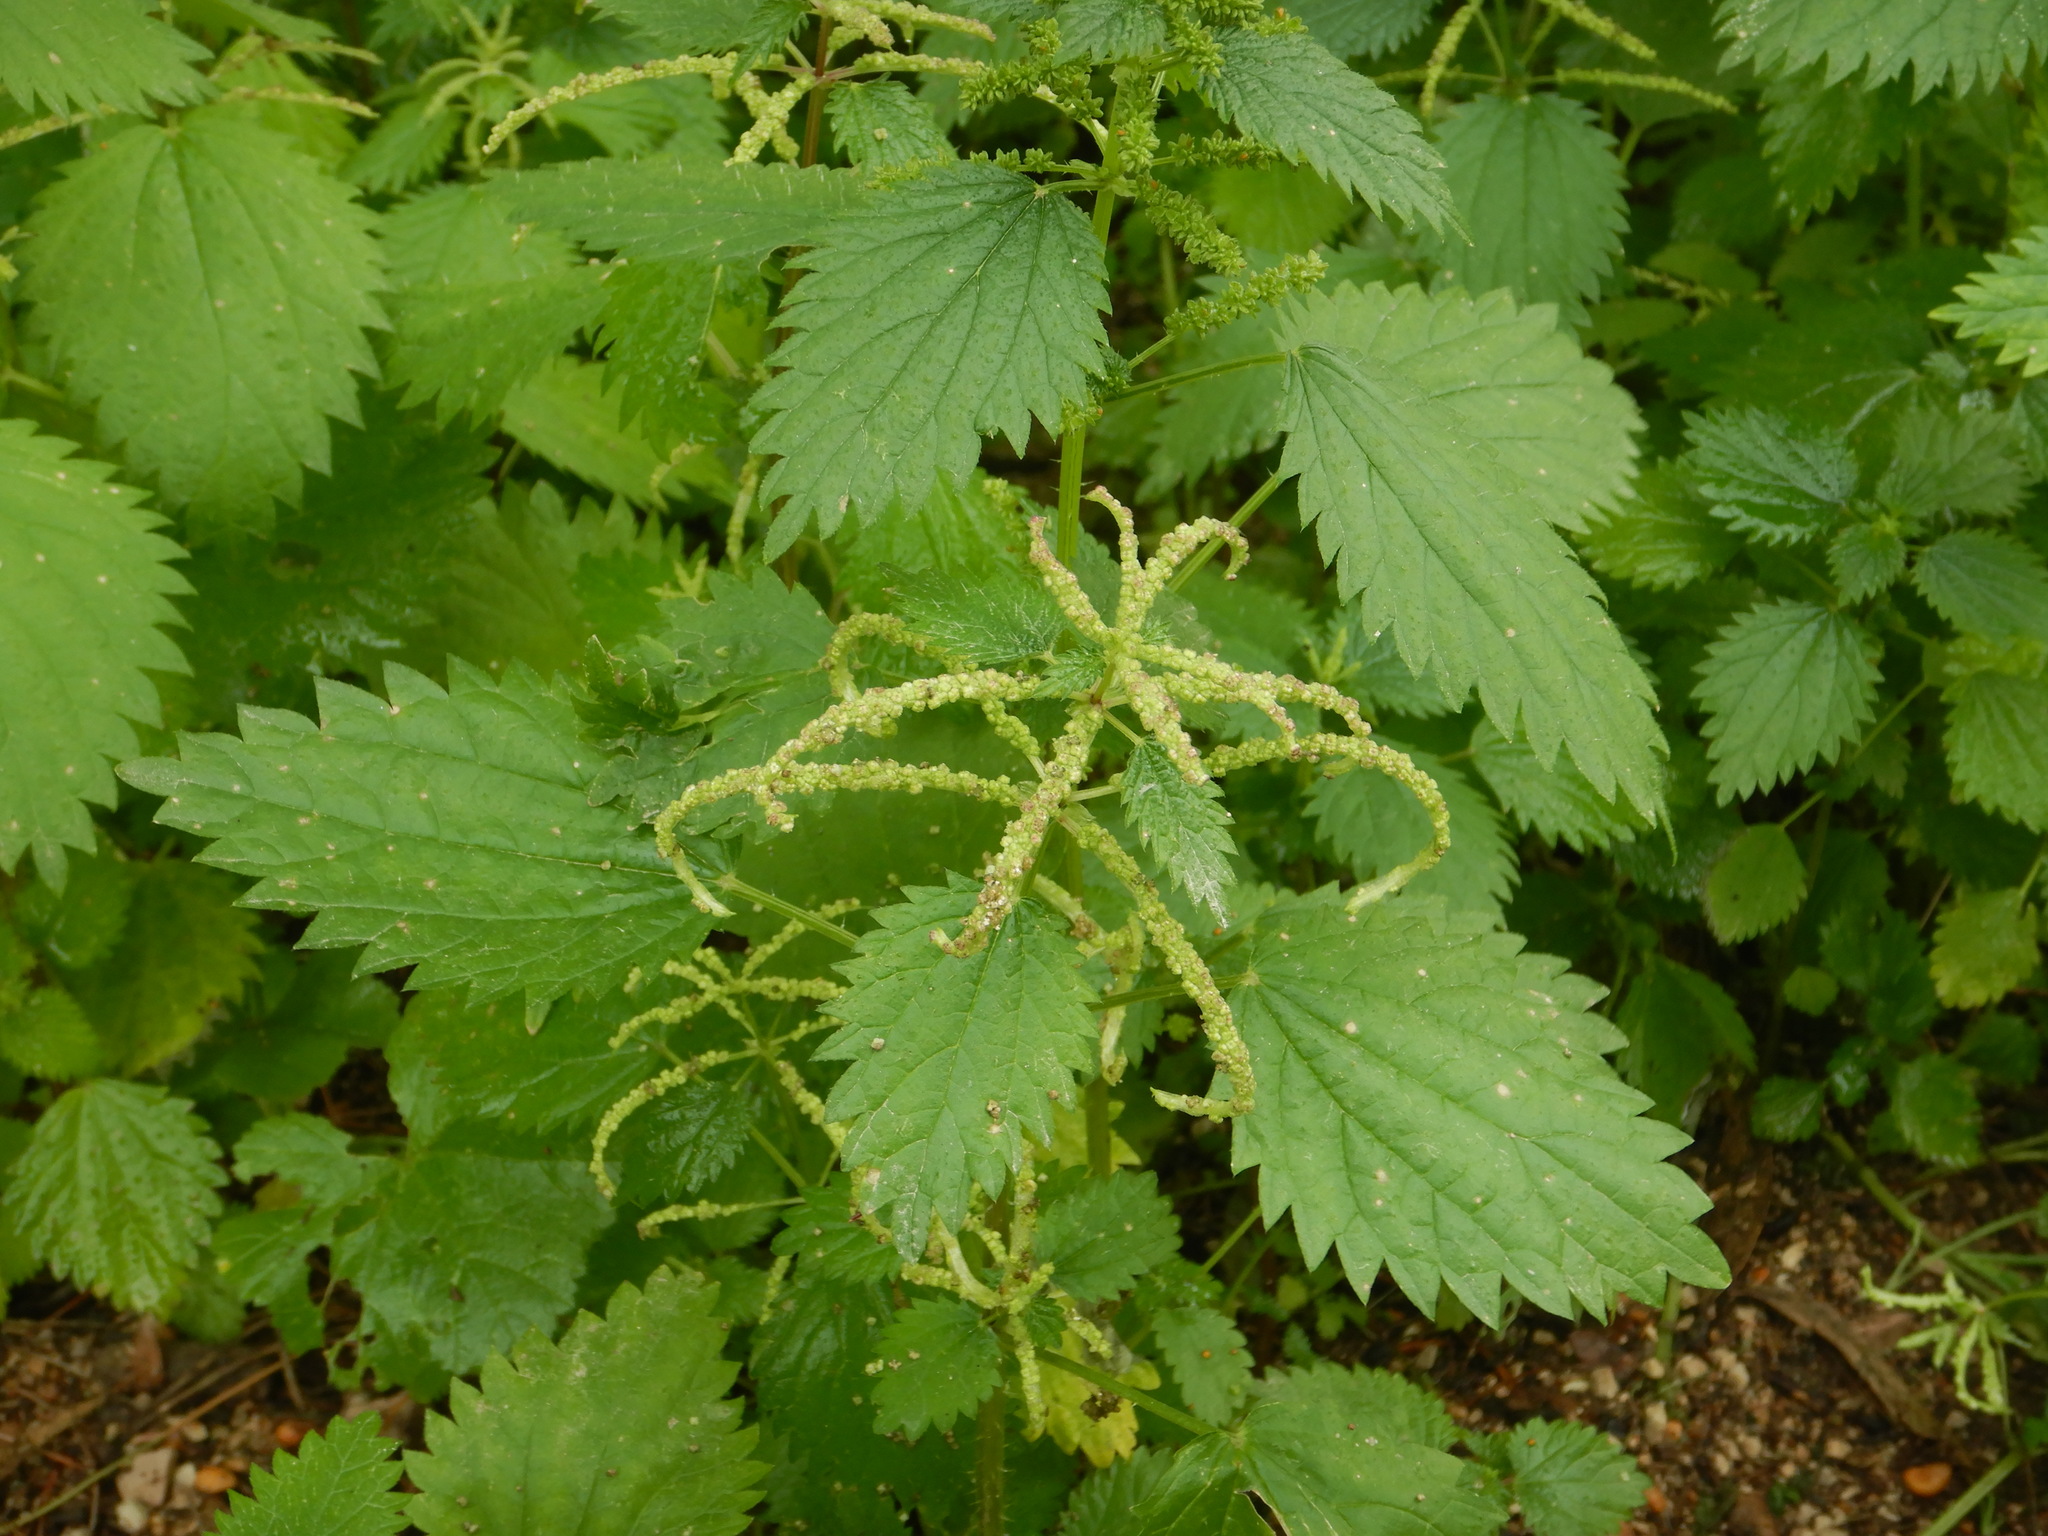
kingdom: Plantae
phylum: Tracheophyta
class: Magnoliopsida
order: Rosales
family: Urticaceae
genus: Urtica
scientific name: Urtica membranacea
